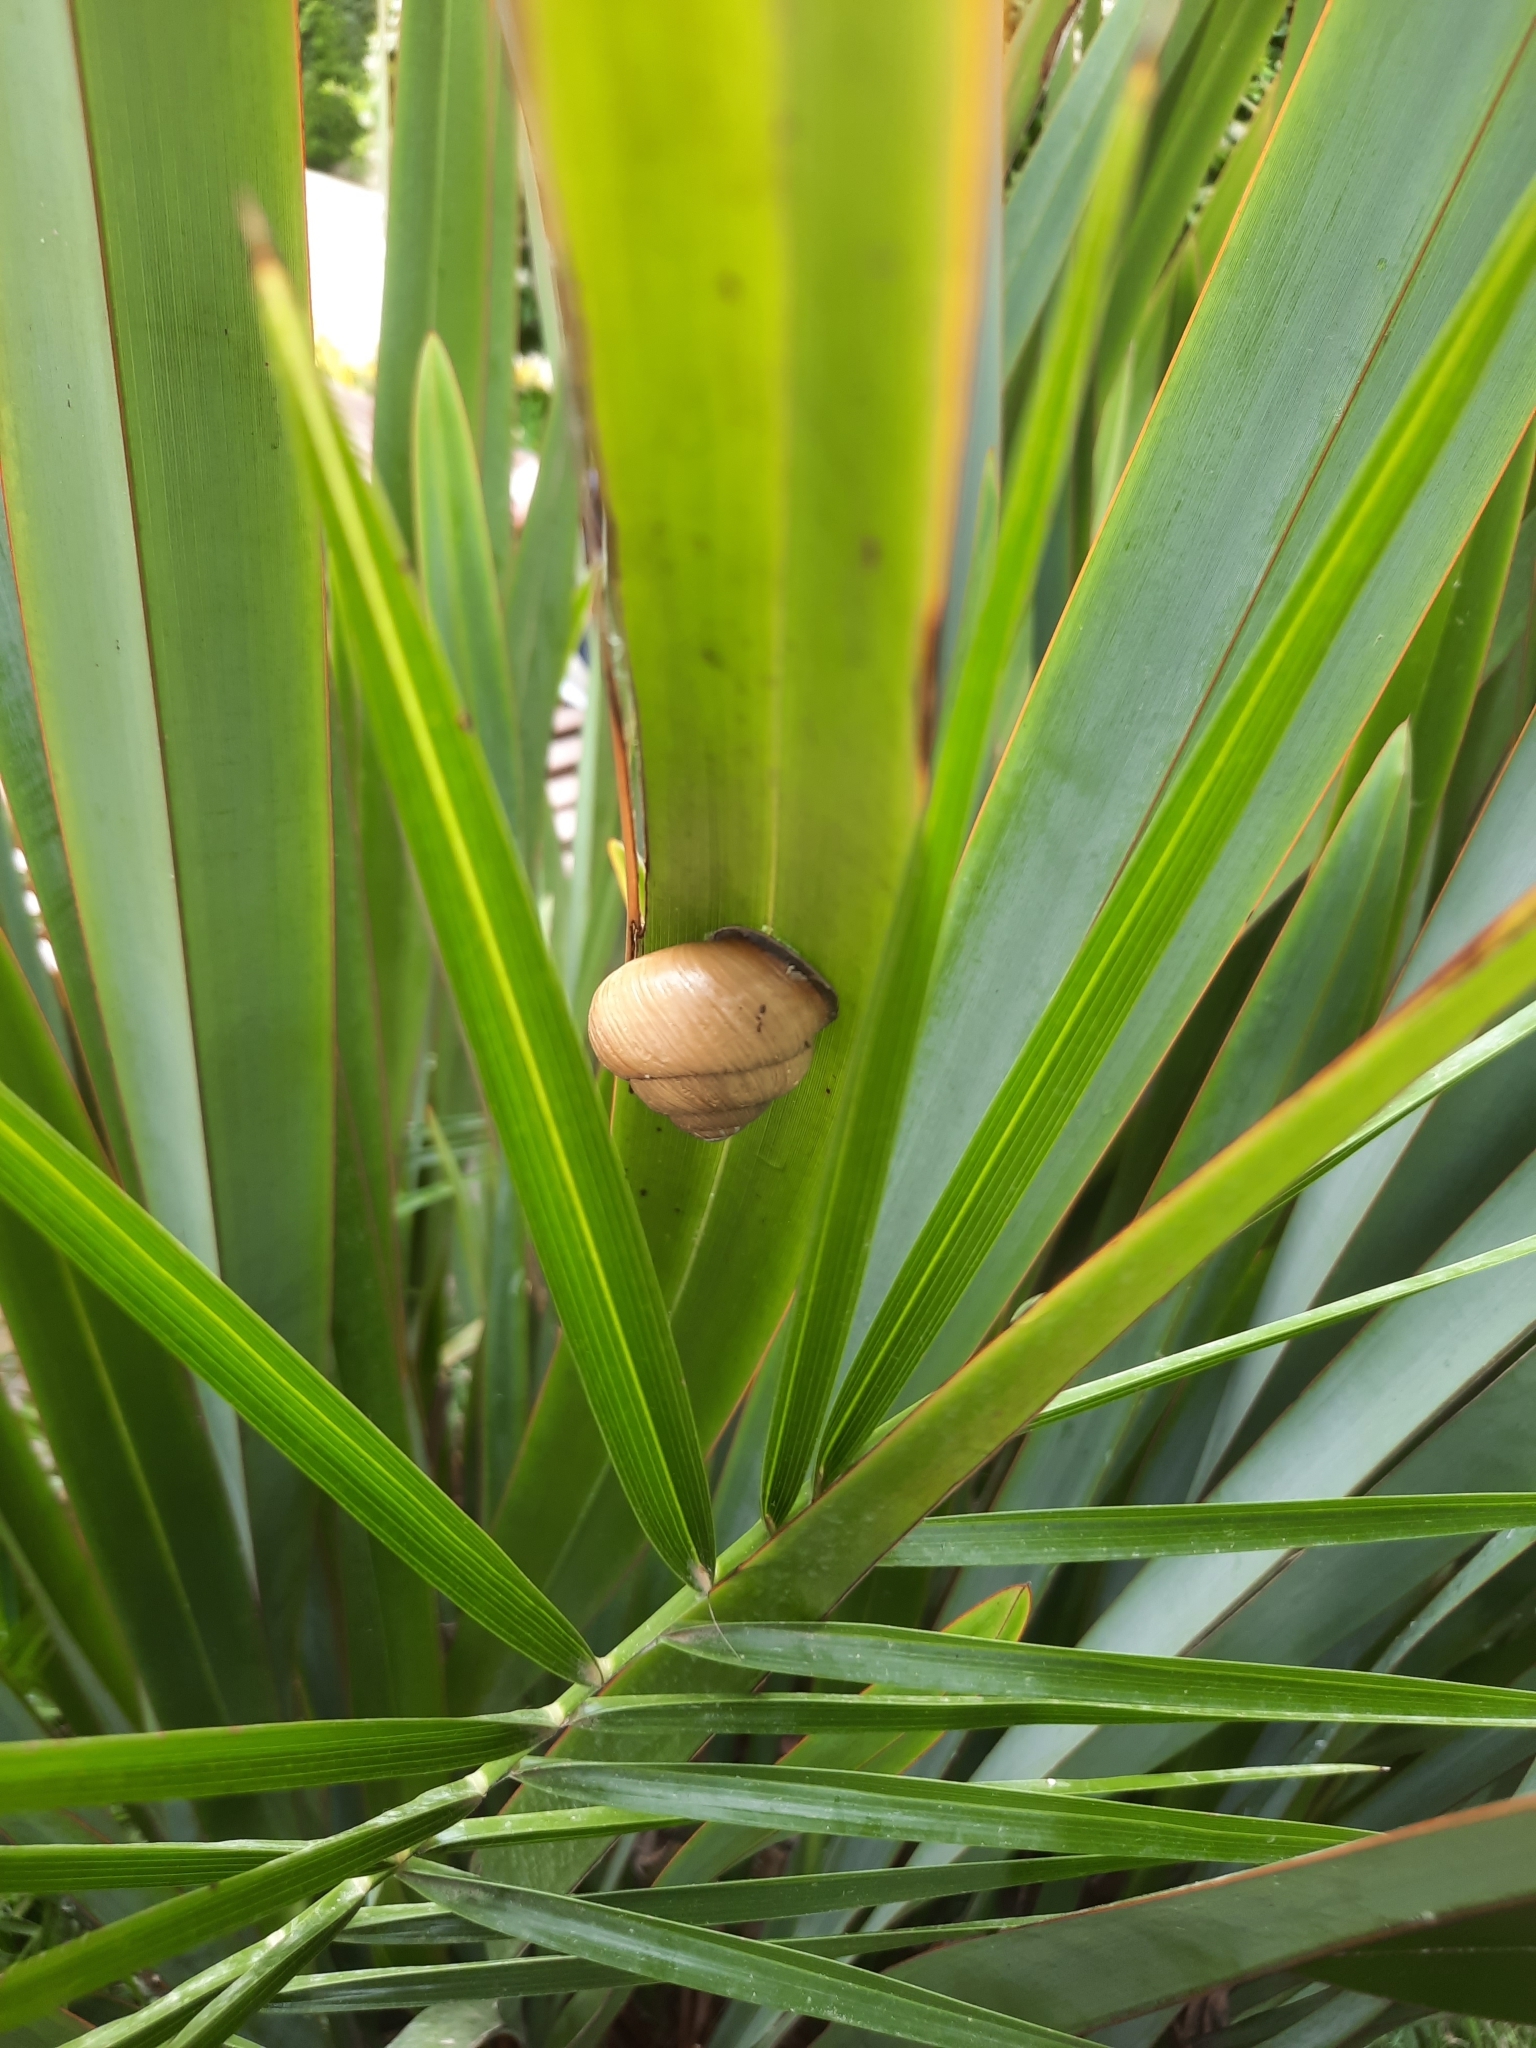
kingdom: Animalia
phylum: Mollusca
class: Gastropoda
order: Stylommatophora
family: Helicidae
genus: Caucasotachea
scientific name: Caucasotachea atrolabiata
